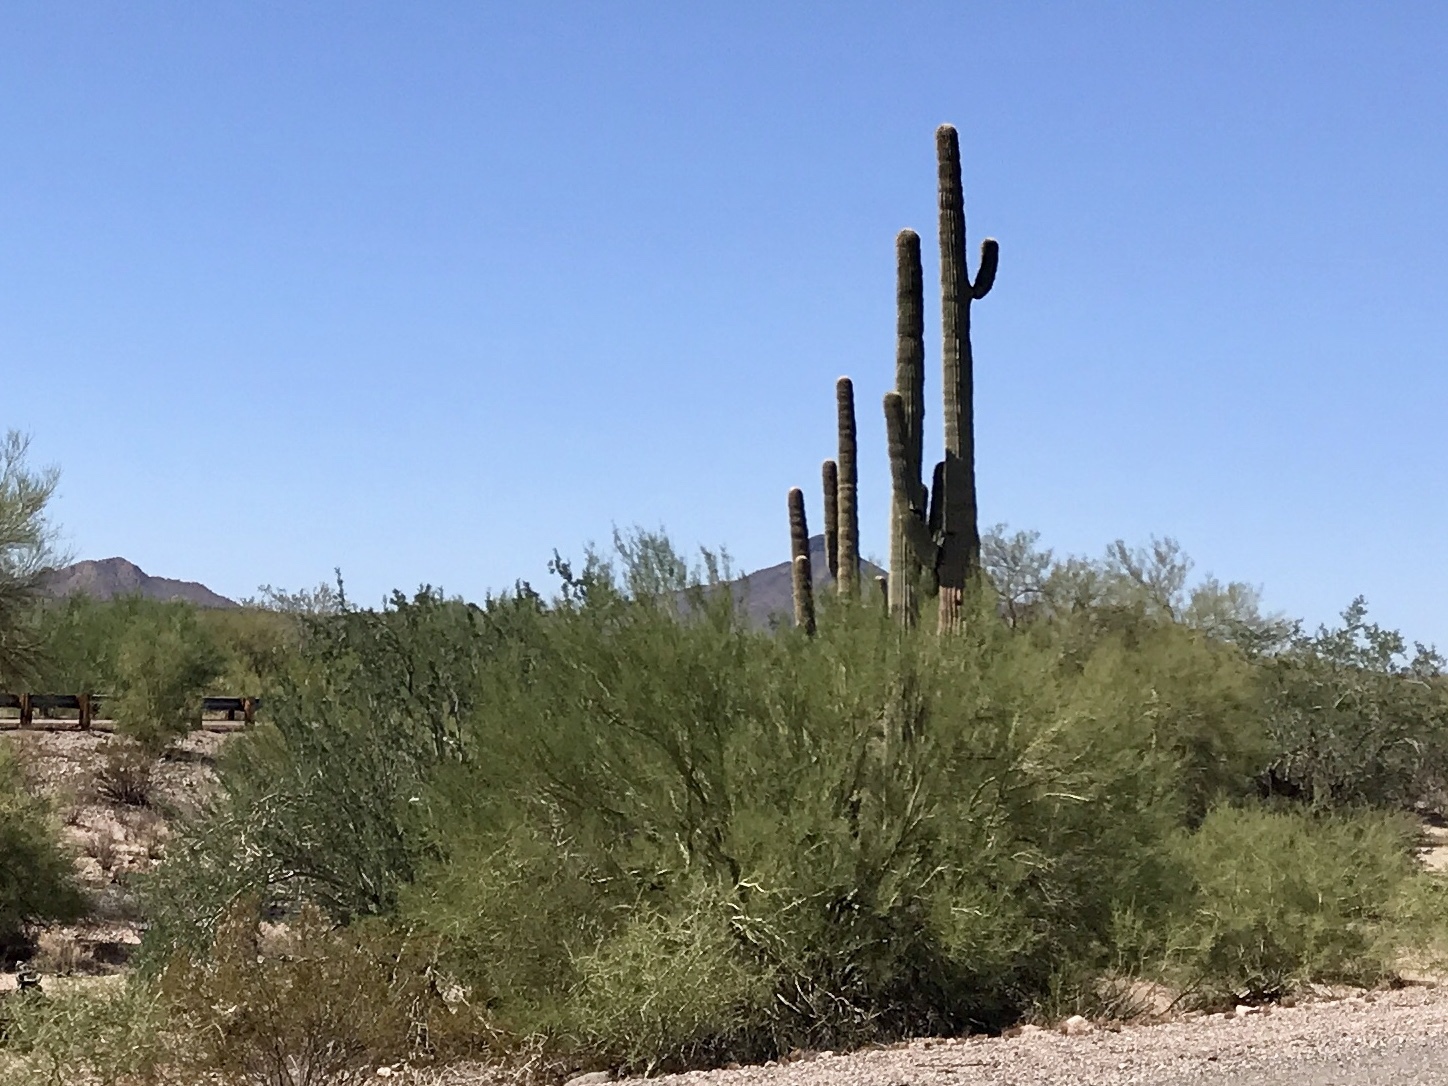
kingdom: Plantae
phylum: Tracheophyta
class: Magnoliopsida
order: Fabales
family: Fabaceae
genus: Parkinsonia
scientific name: Parkinsonia florida
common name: Blue paloverde
